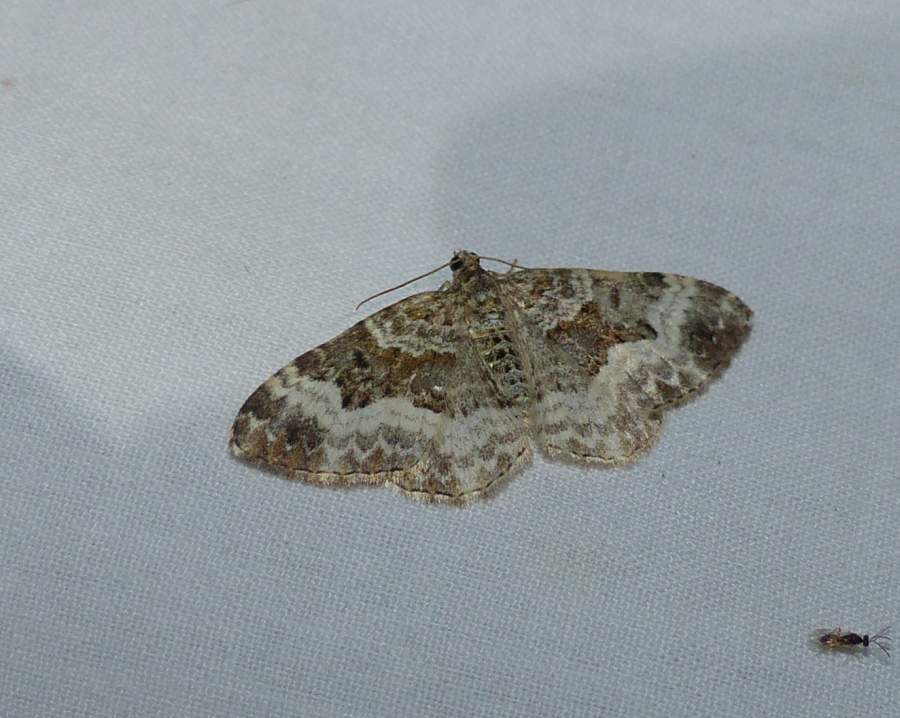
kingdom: Animalia
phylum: Arthropoda
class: Insecta
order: Lepidoptera
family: Geometridae
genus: Epirrhoe
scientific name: Epirrhoe alternata
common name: Common carpet
